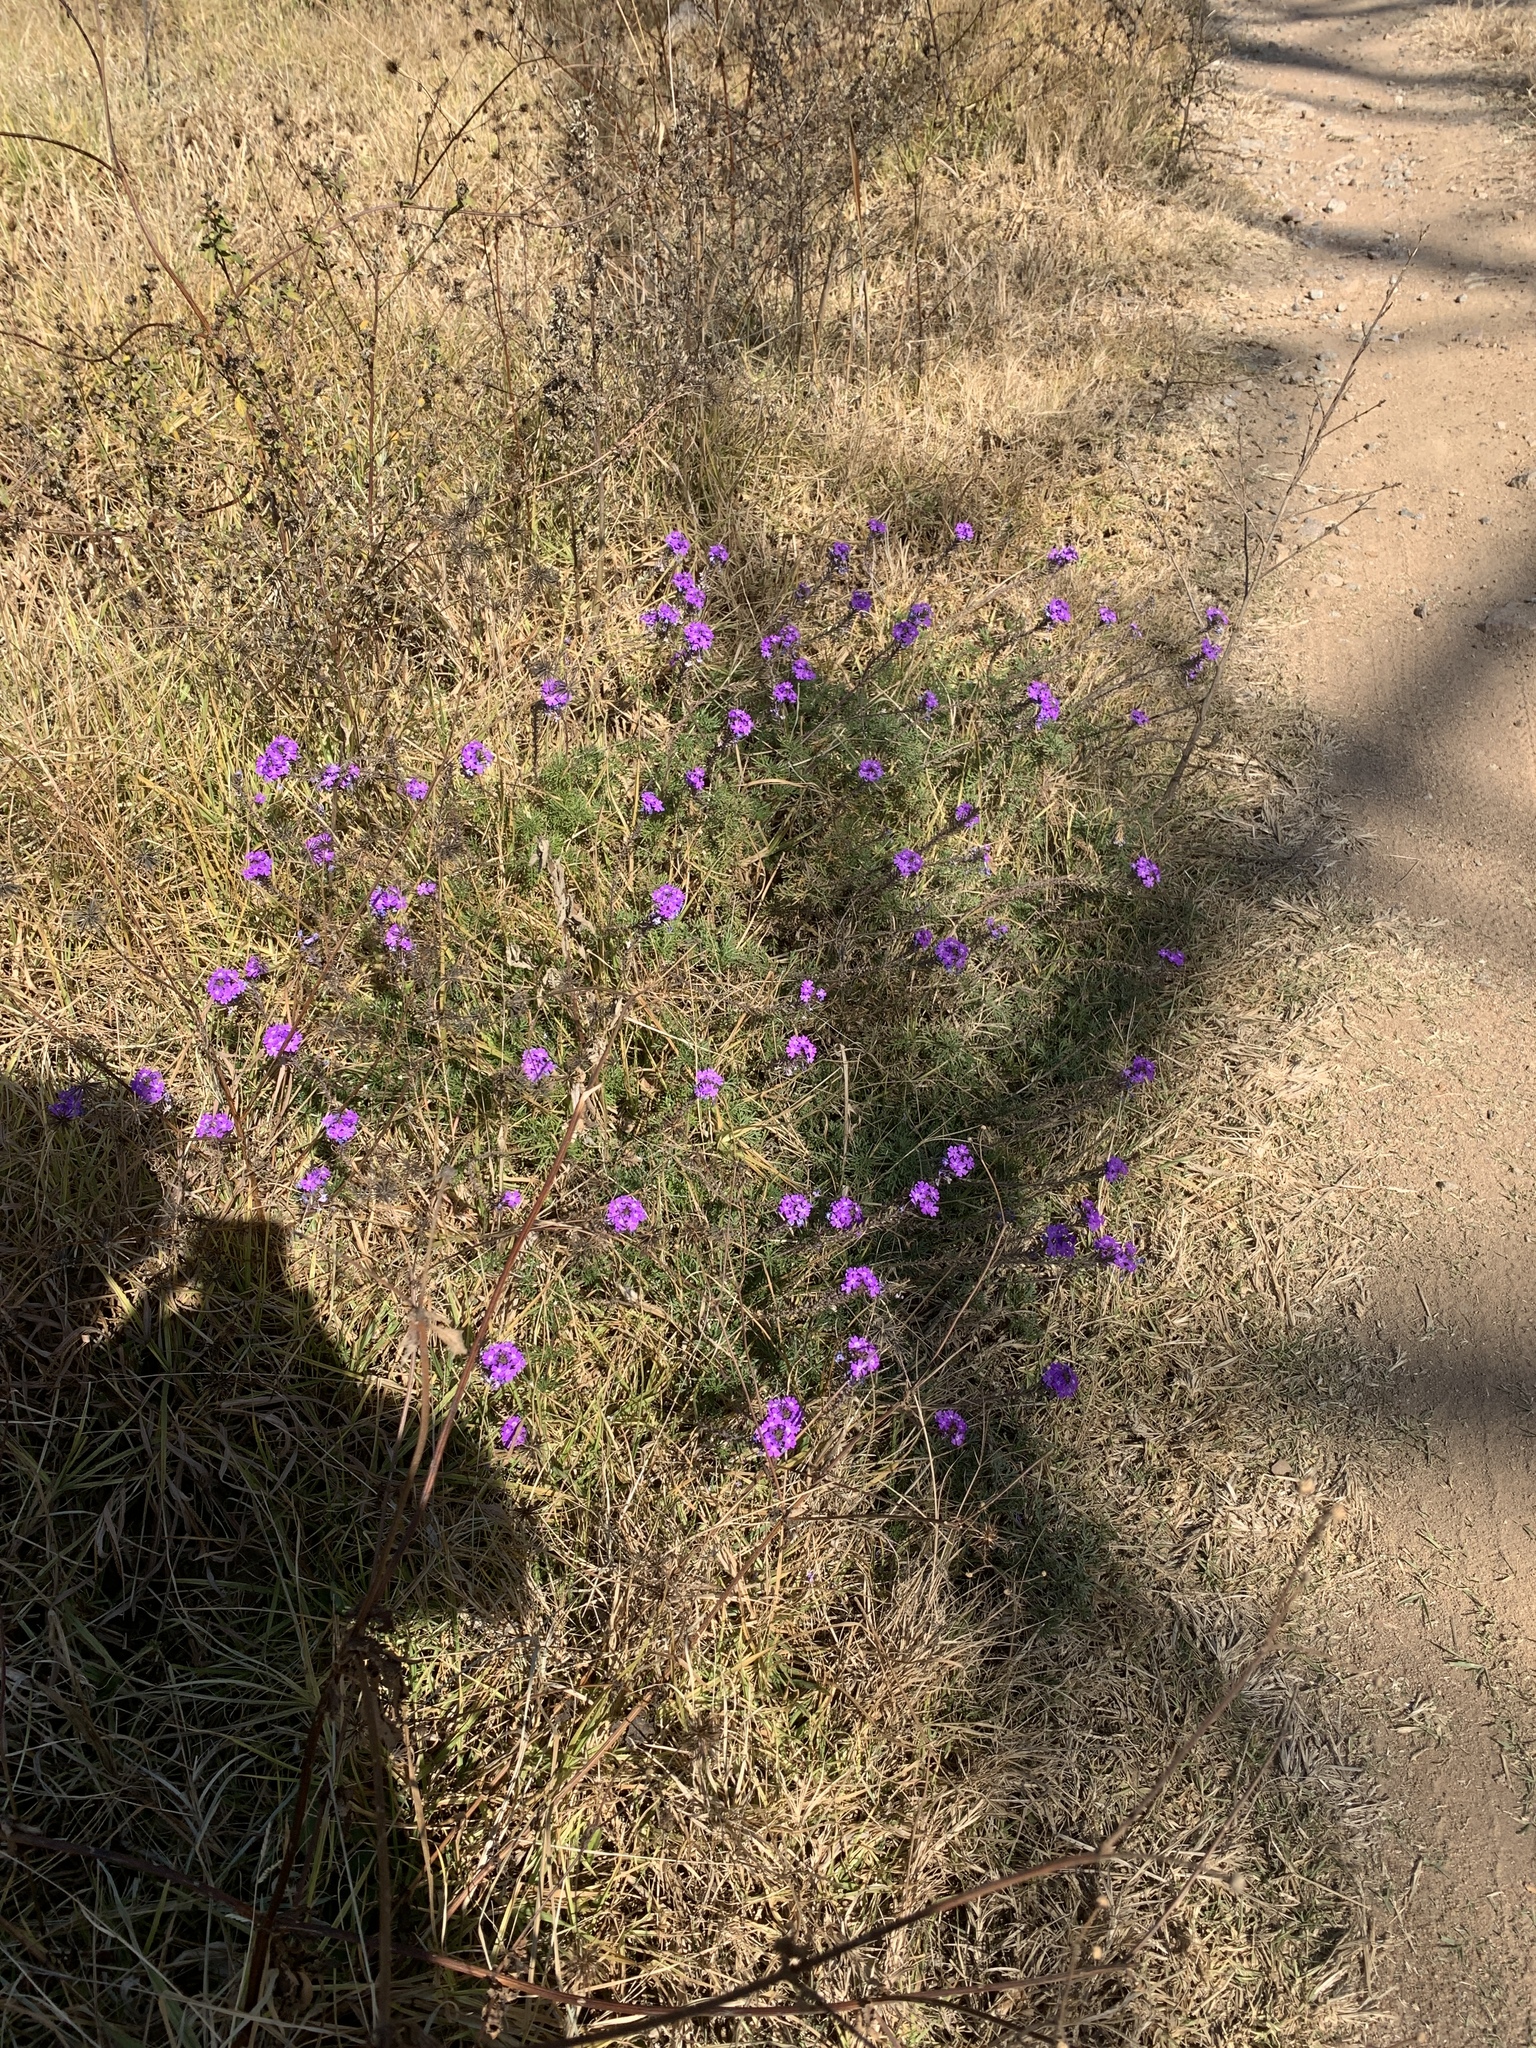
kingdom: Plantae
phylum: Tracheophyta
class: Magnoliopsida
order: Lamiales
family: Verbenaceae
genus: Verbena
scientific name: Verbena aristigera
